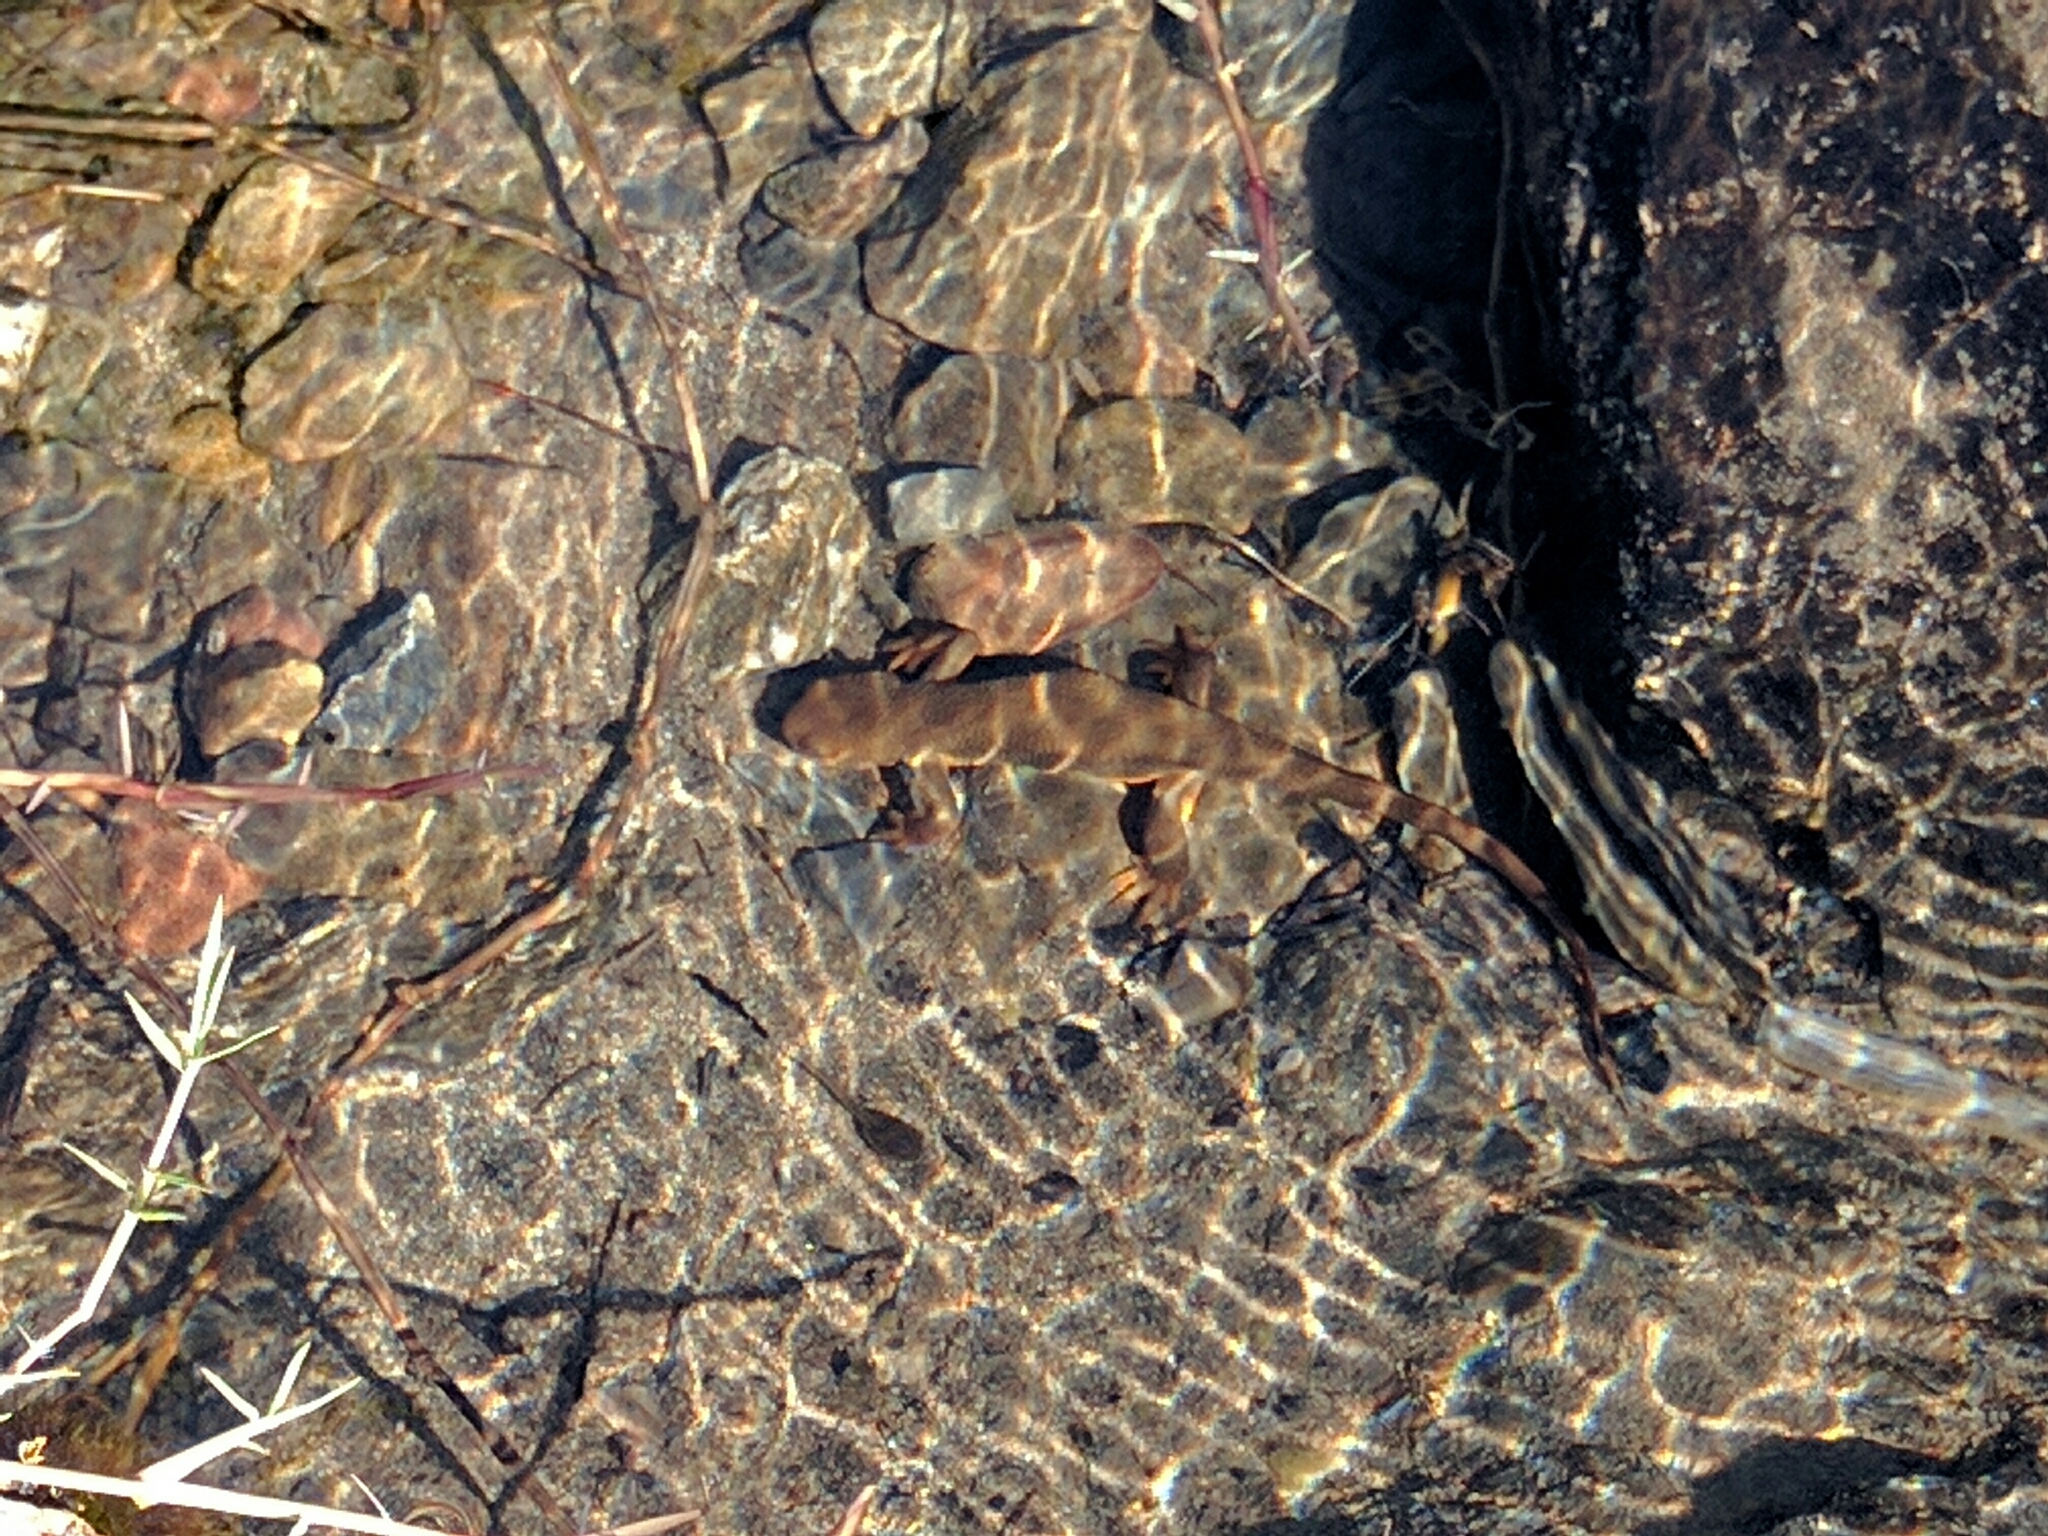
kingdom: Animalia
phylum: Chordata
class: Amphibia
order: Caudata
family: Salamandridae
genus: Taricha
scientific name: Taricha granulosa
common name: Roughskin newt
